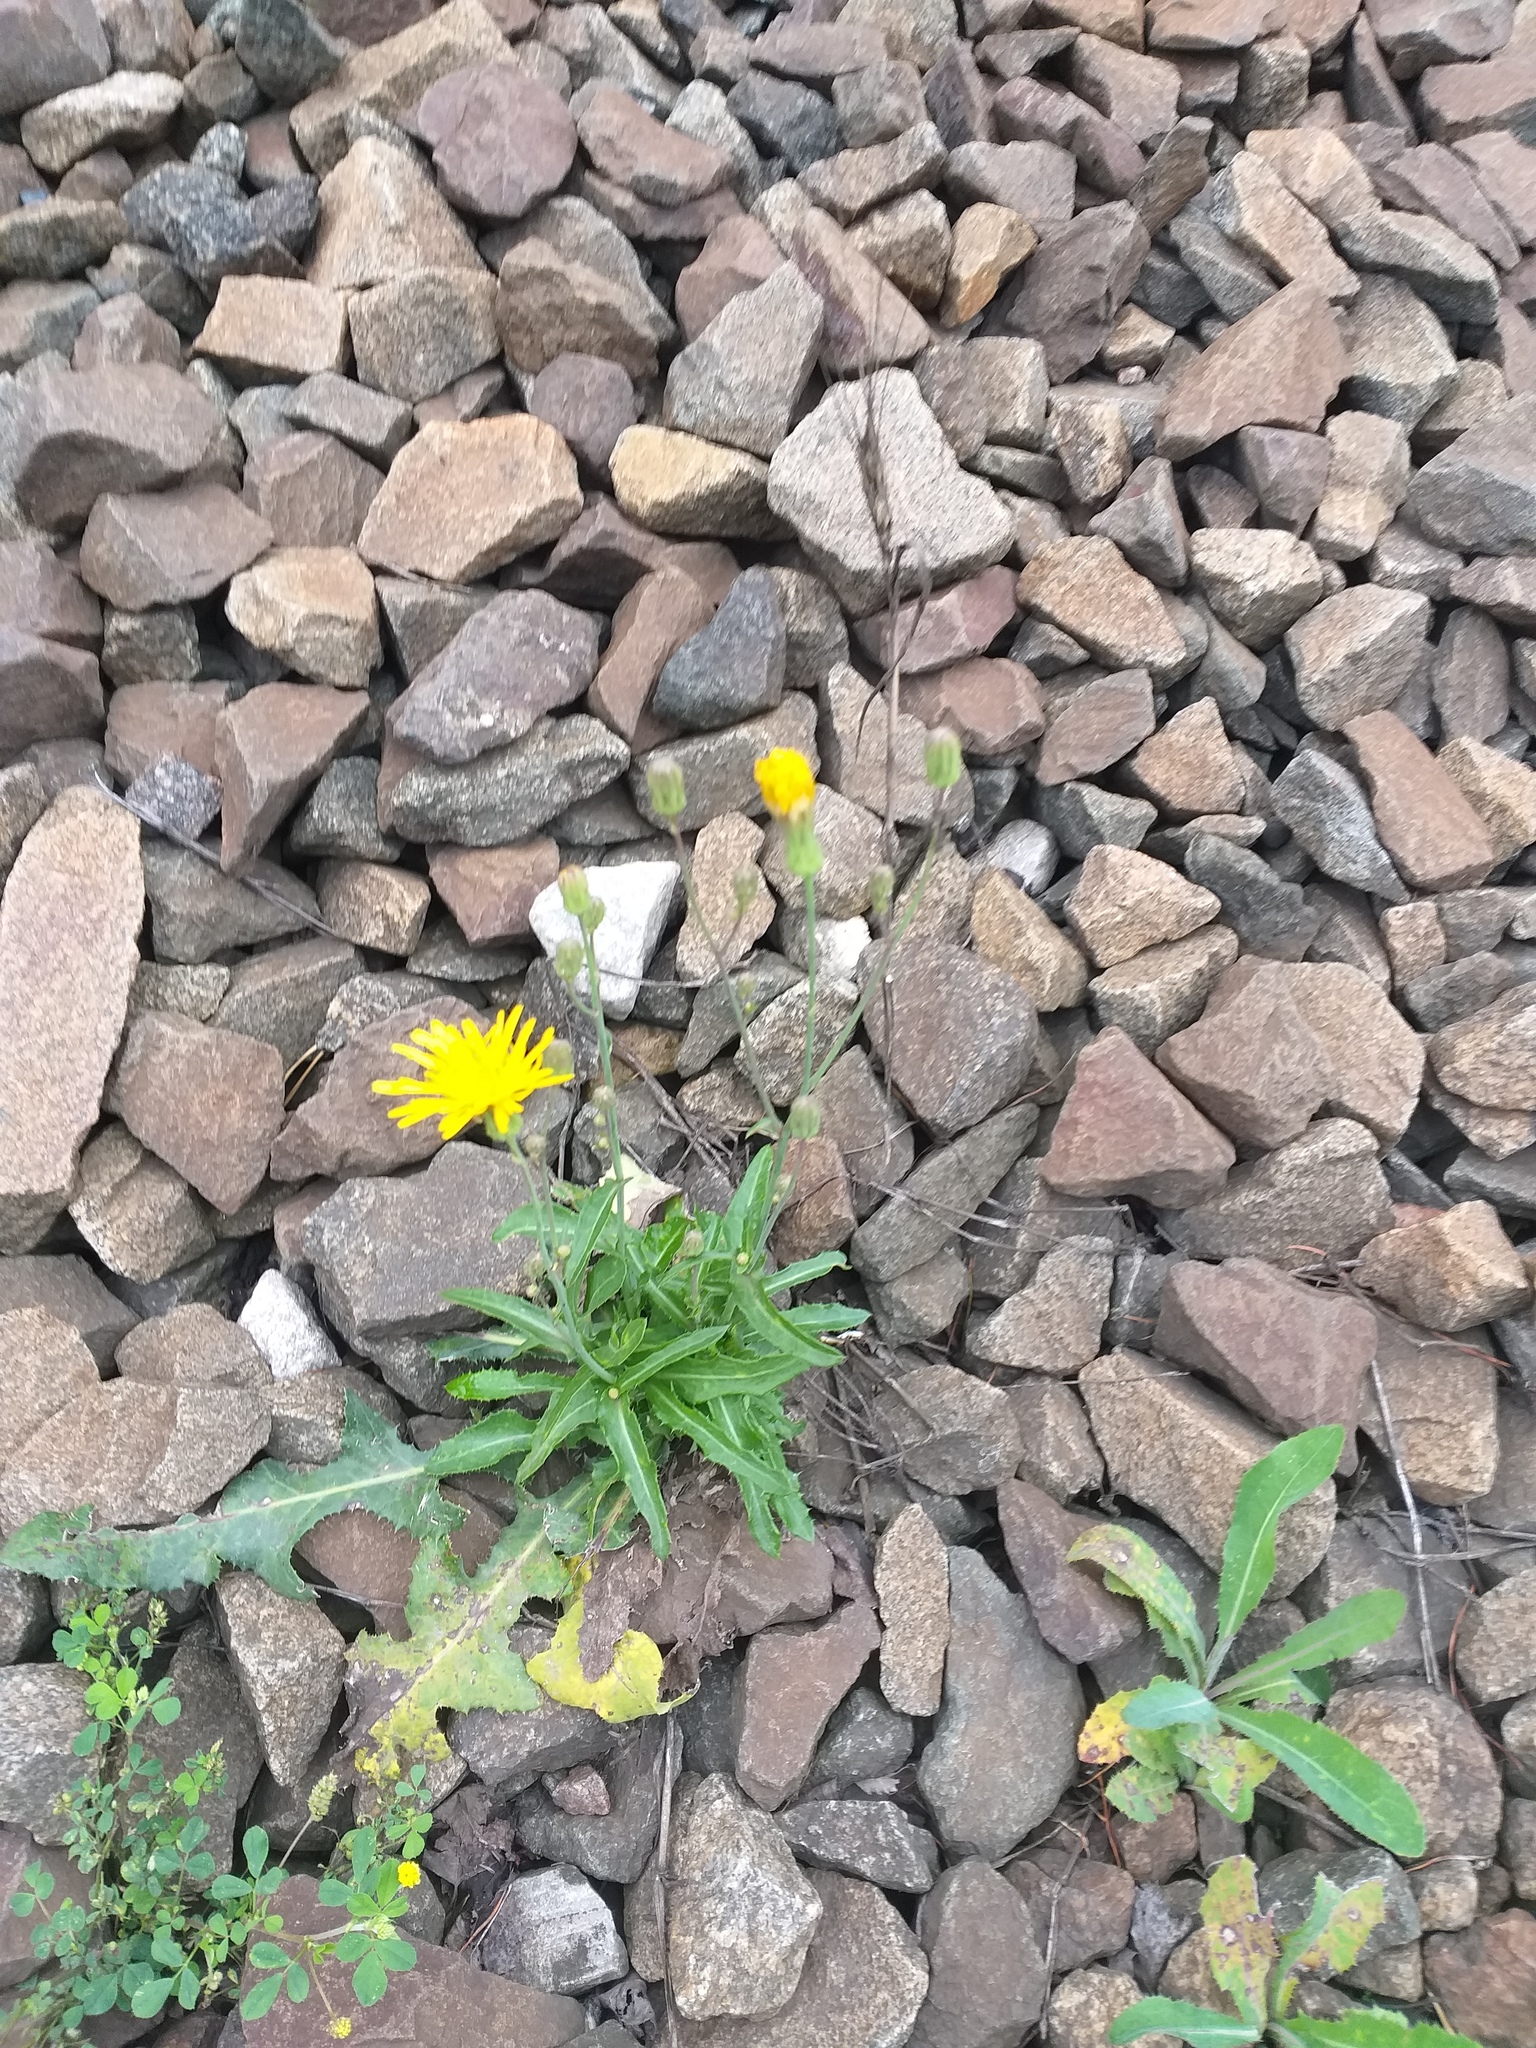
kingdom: Plantae
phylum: Tracheophyta
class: Magnoliopsida
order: Asterales
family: Asteraceae
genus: Sonchus
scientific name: Sonchus arvensis
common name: Perennial sow-thistle
